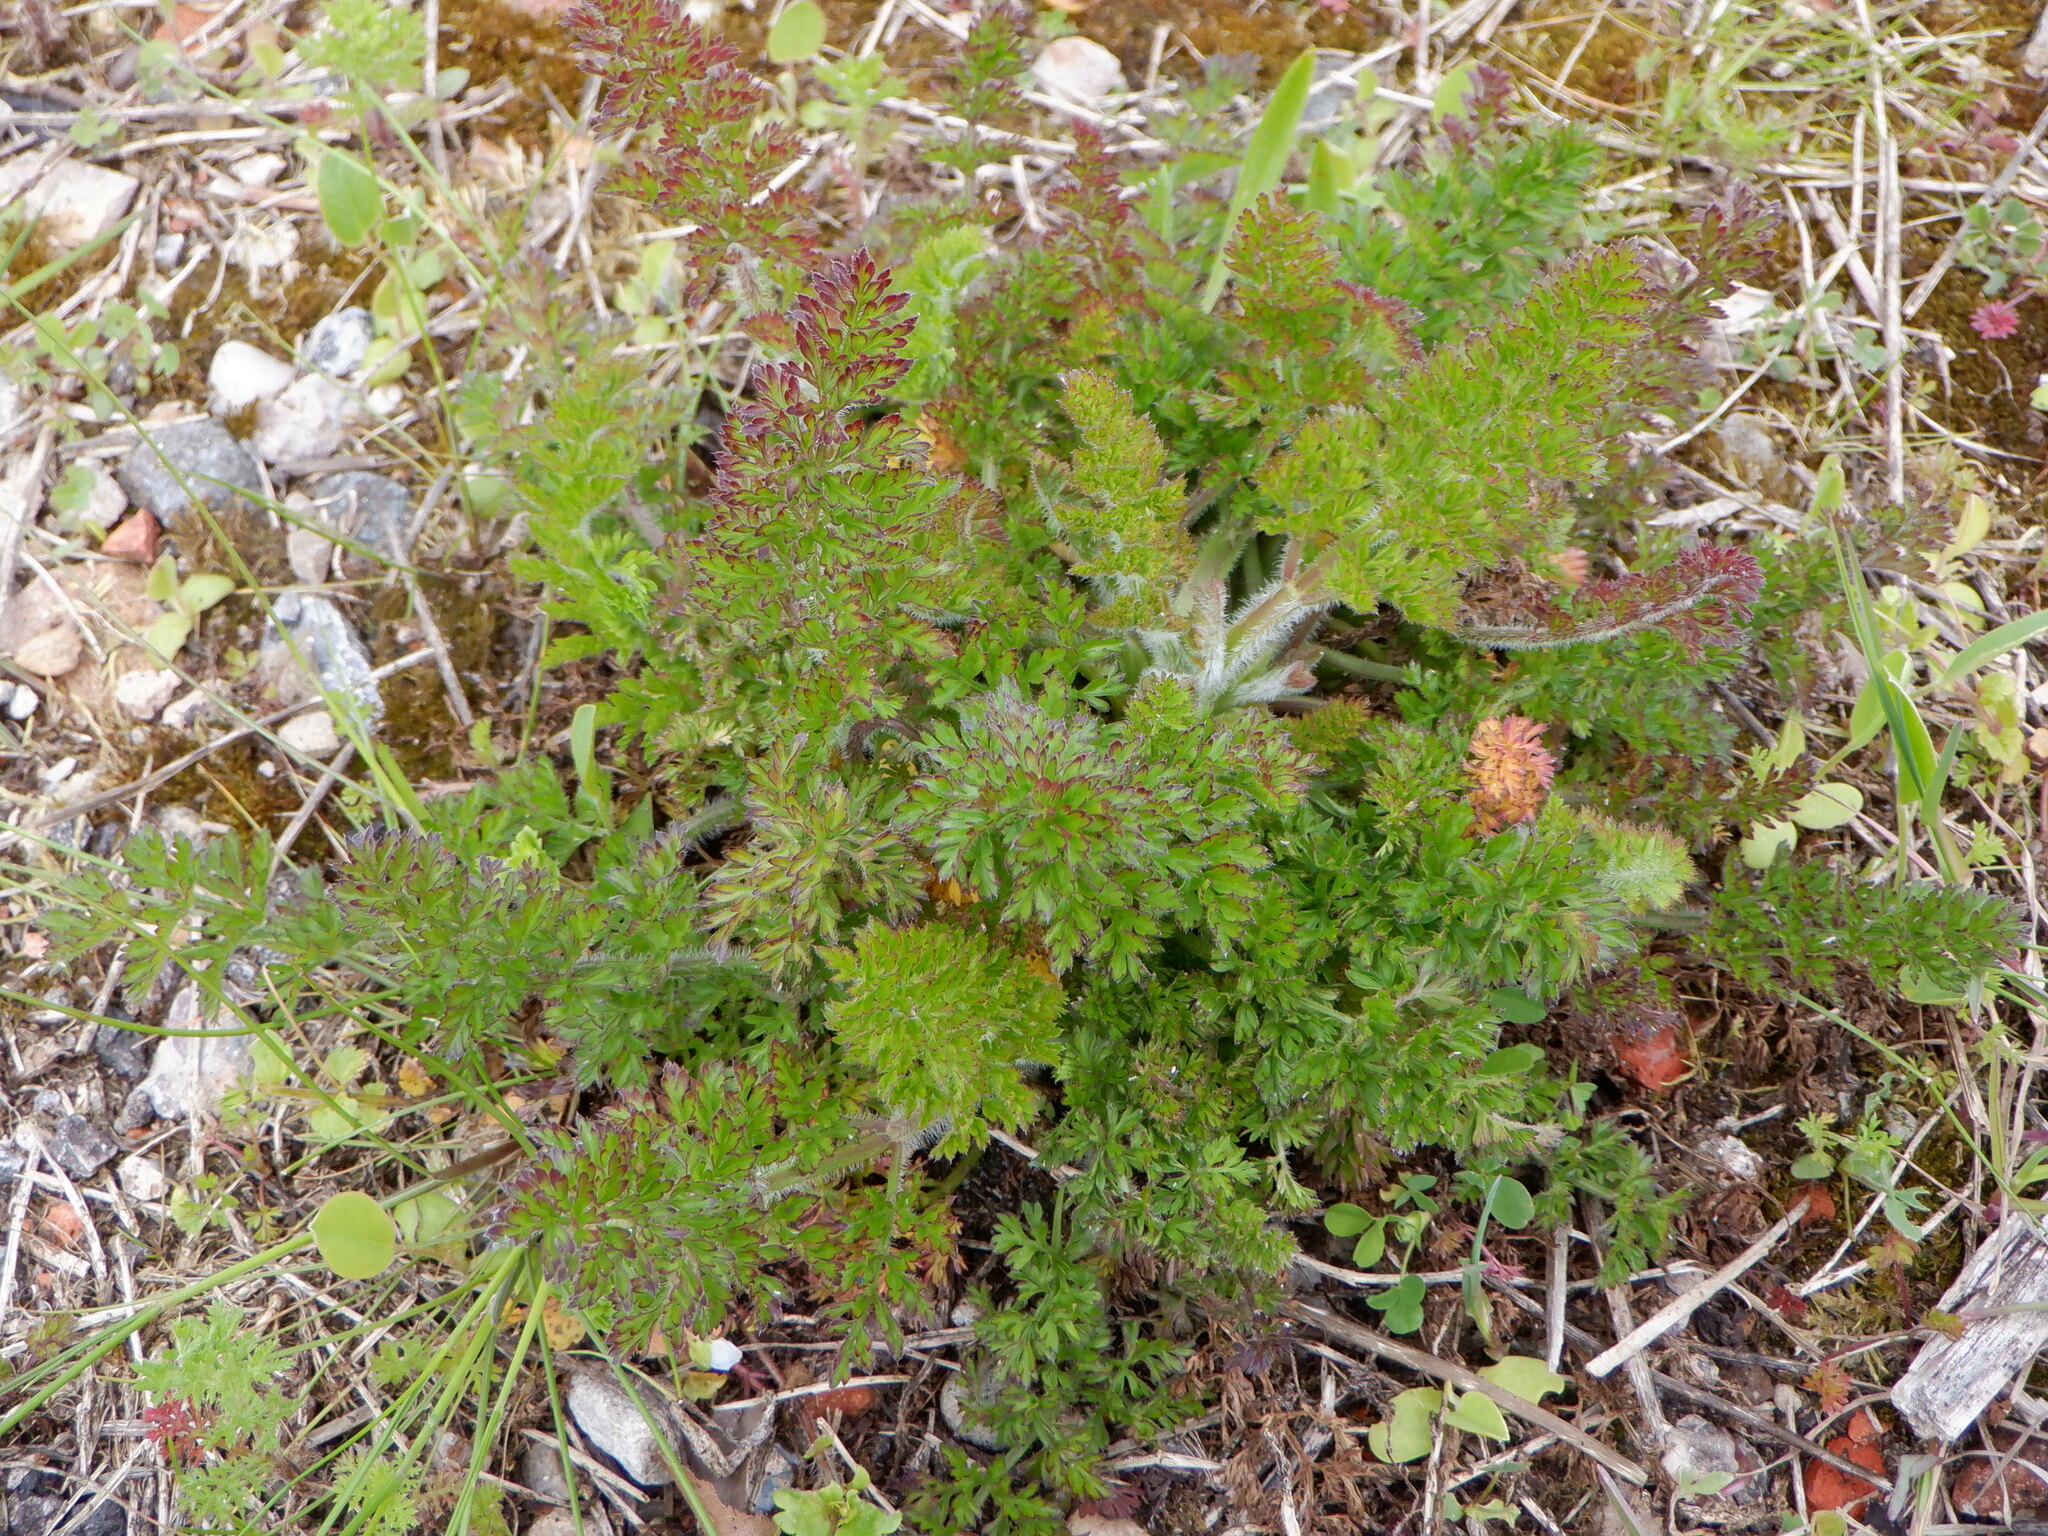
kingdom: Plantae
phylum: Tracheophyta
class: Magnoliopsida
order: Apiales
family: Apiaceae
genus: Daucus
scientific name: Daucus carota
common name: Wild carrot
